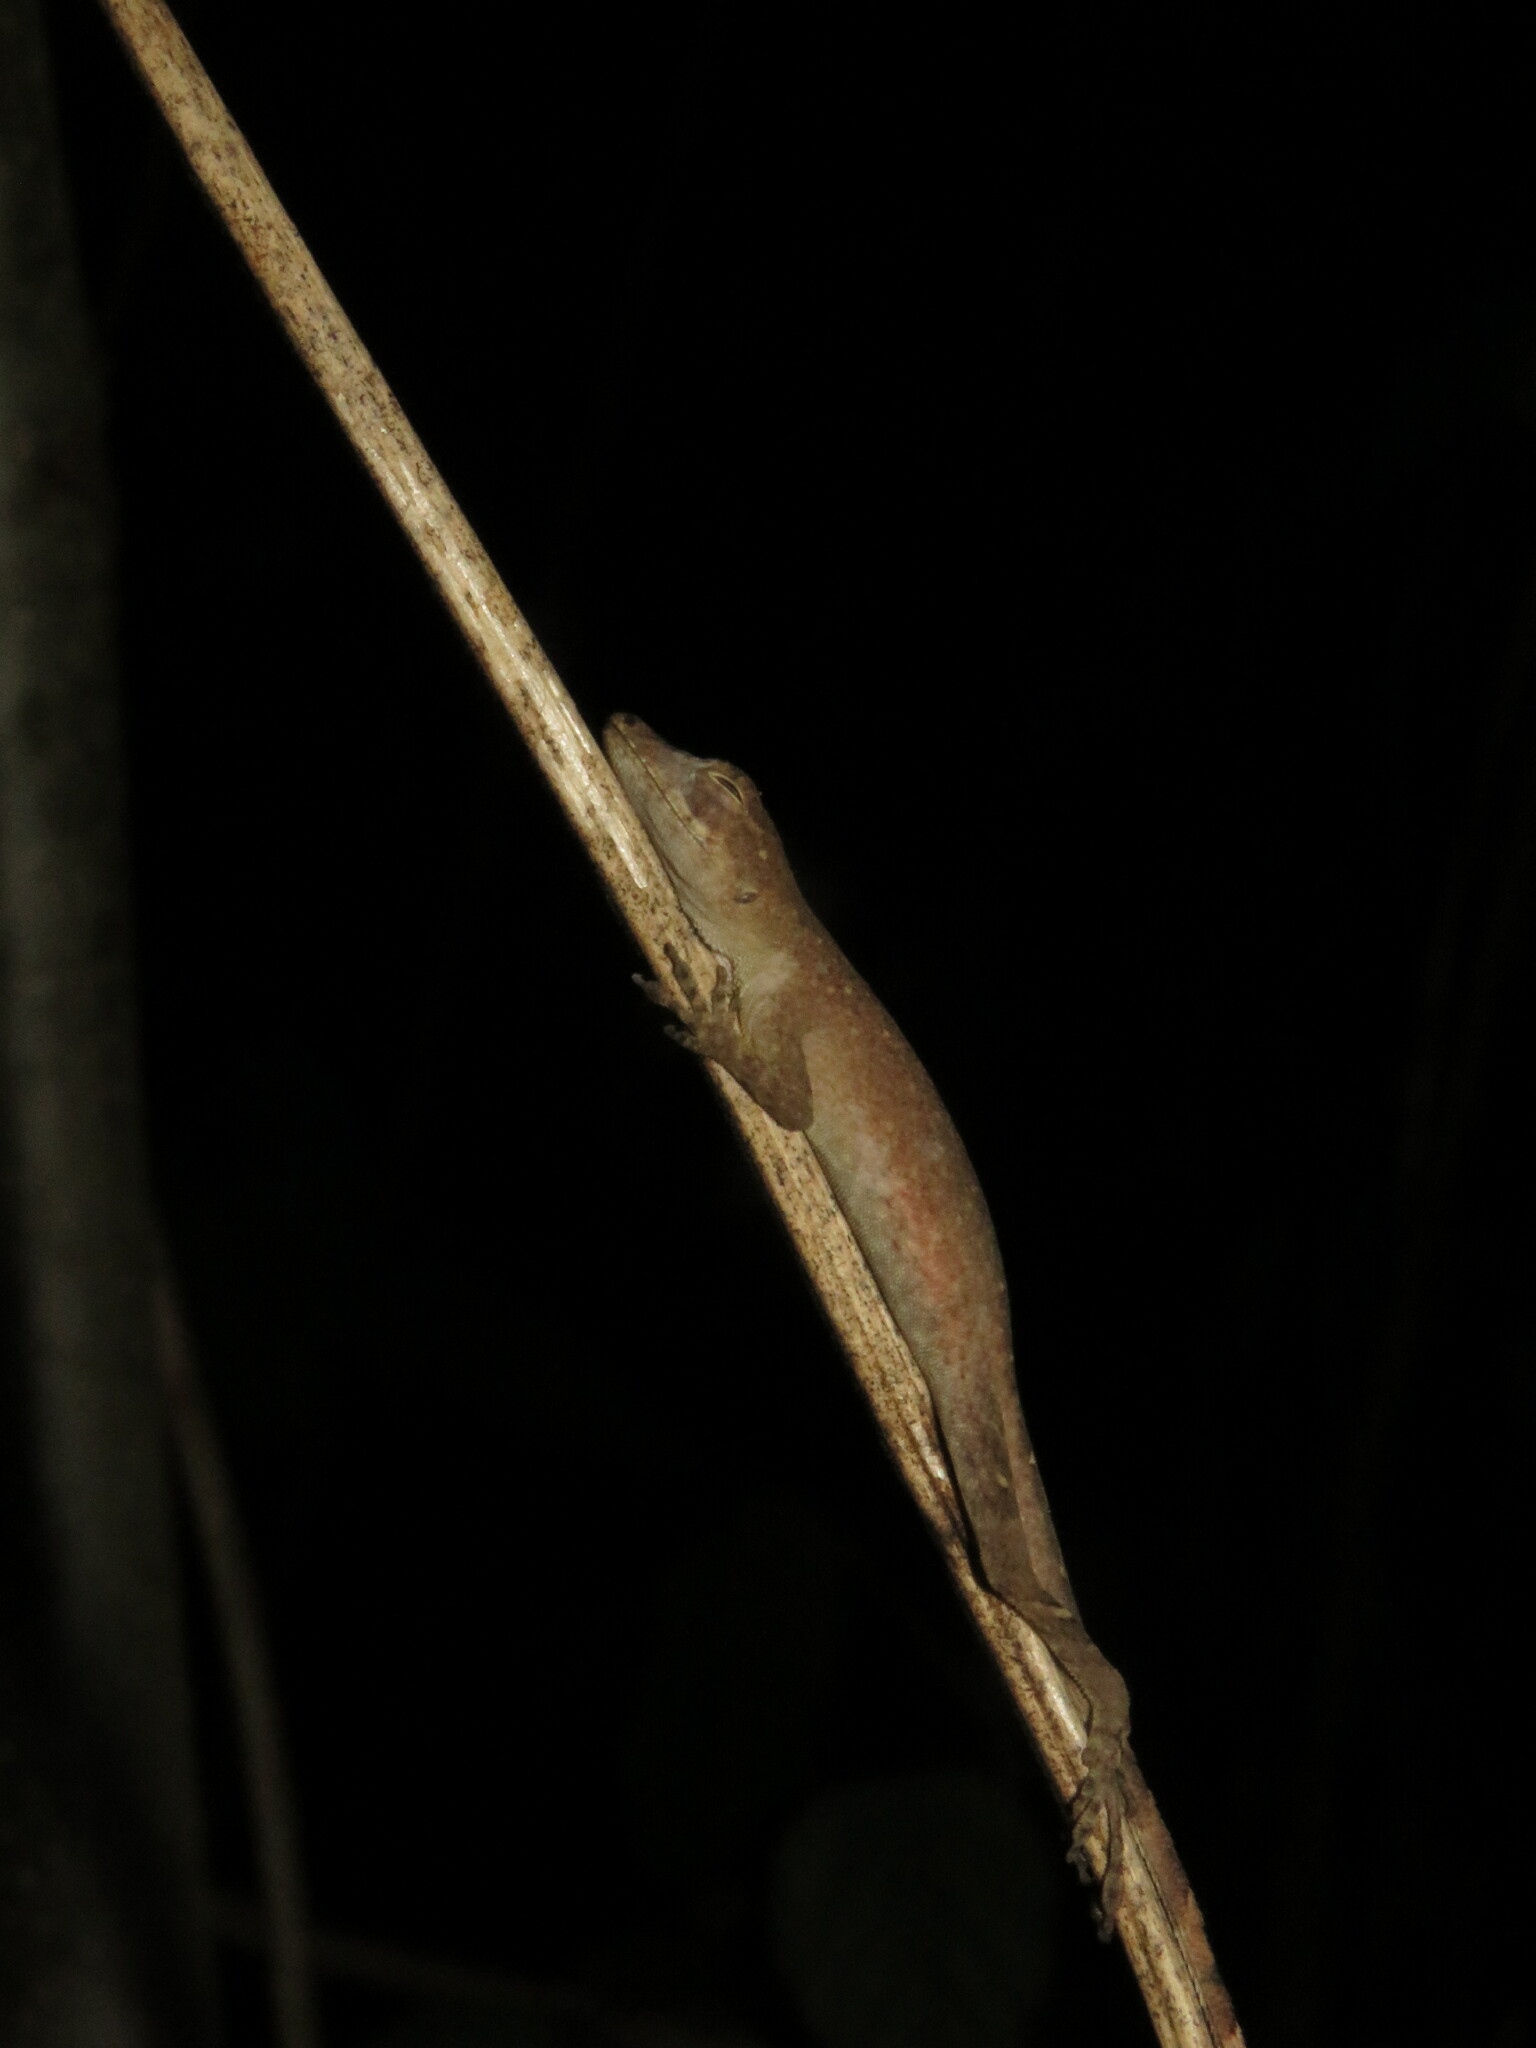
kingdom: Animalia
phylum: Chordata
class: Squamata
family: Dactyloidae
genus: Anolis
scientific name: Anolis fuscoauratus
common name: Brown-eared anole
